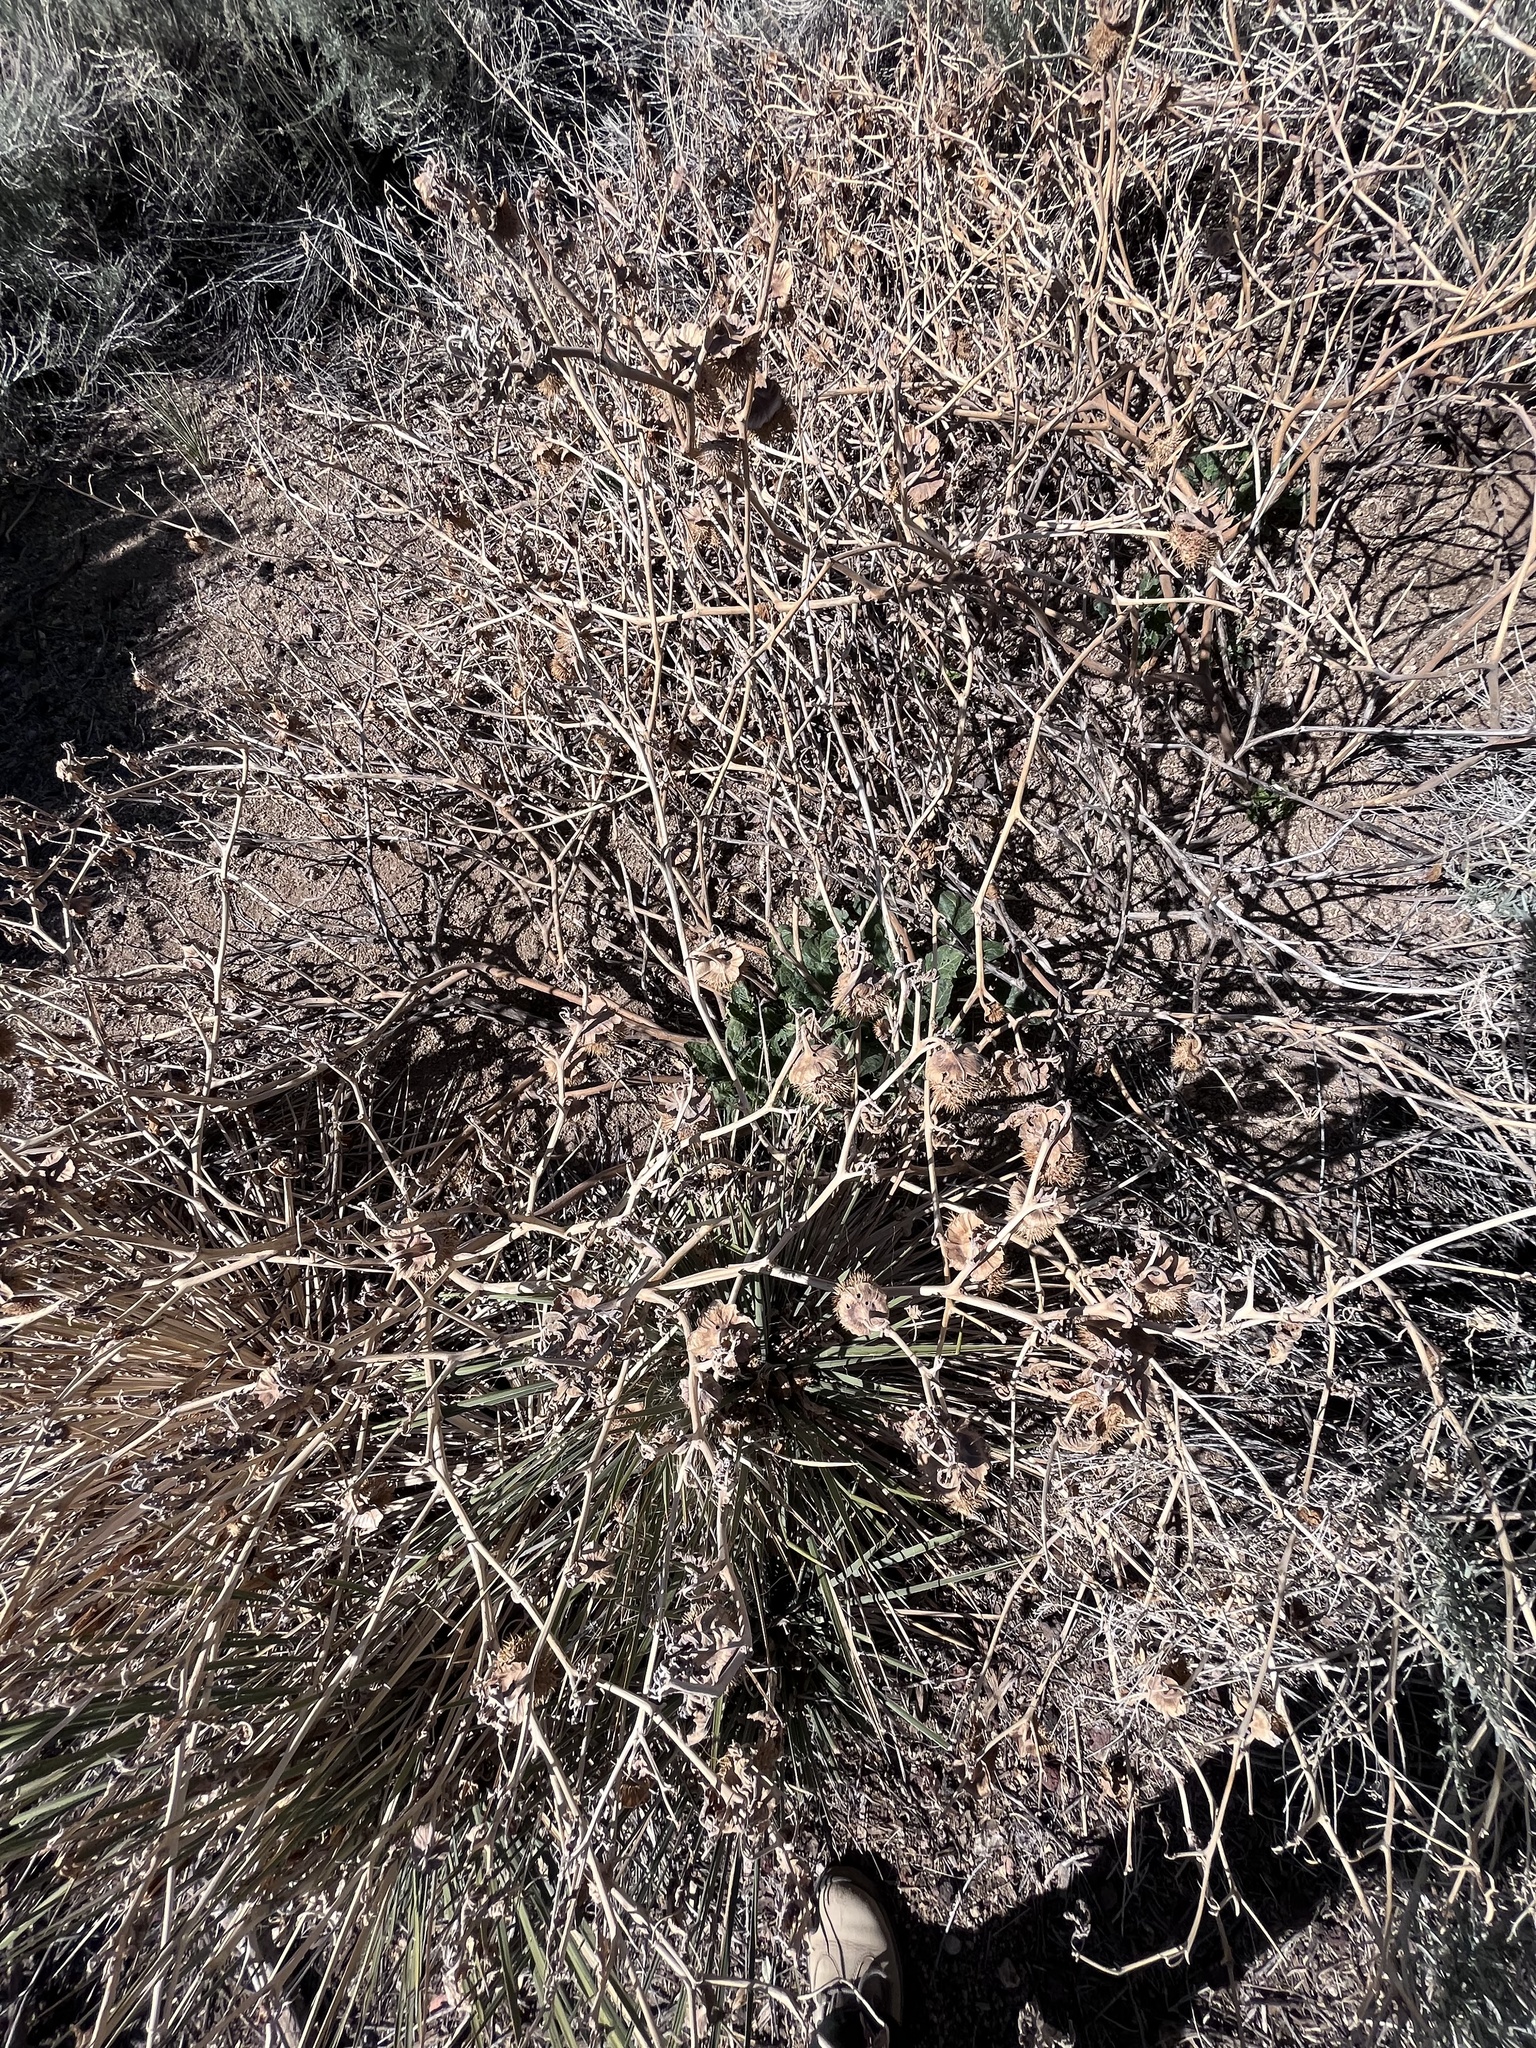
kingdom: Plantae
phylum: Tracheophyta
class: Magnoliopsida
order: Solanales
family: Solanaceae
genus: Datura
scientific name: Datura wrightii
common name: Sacred thorn-apple
